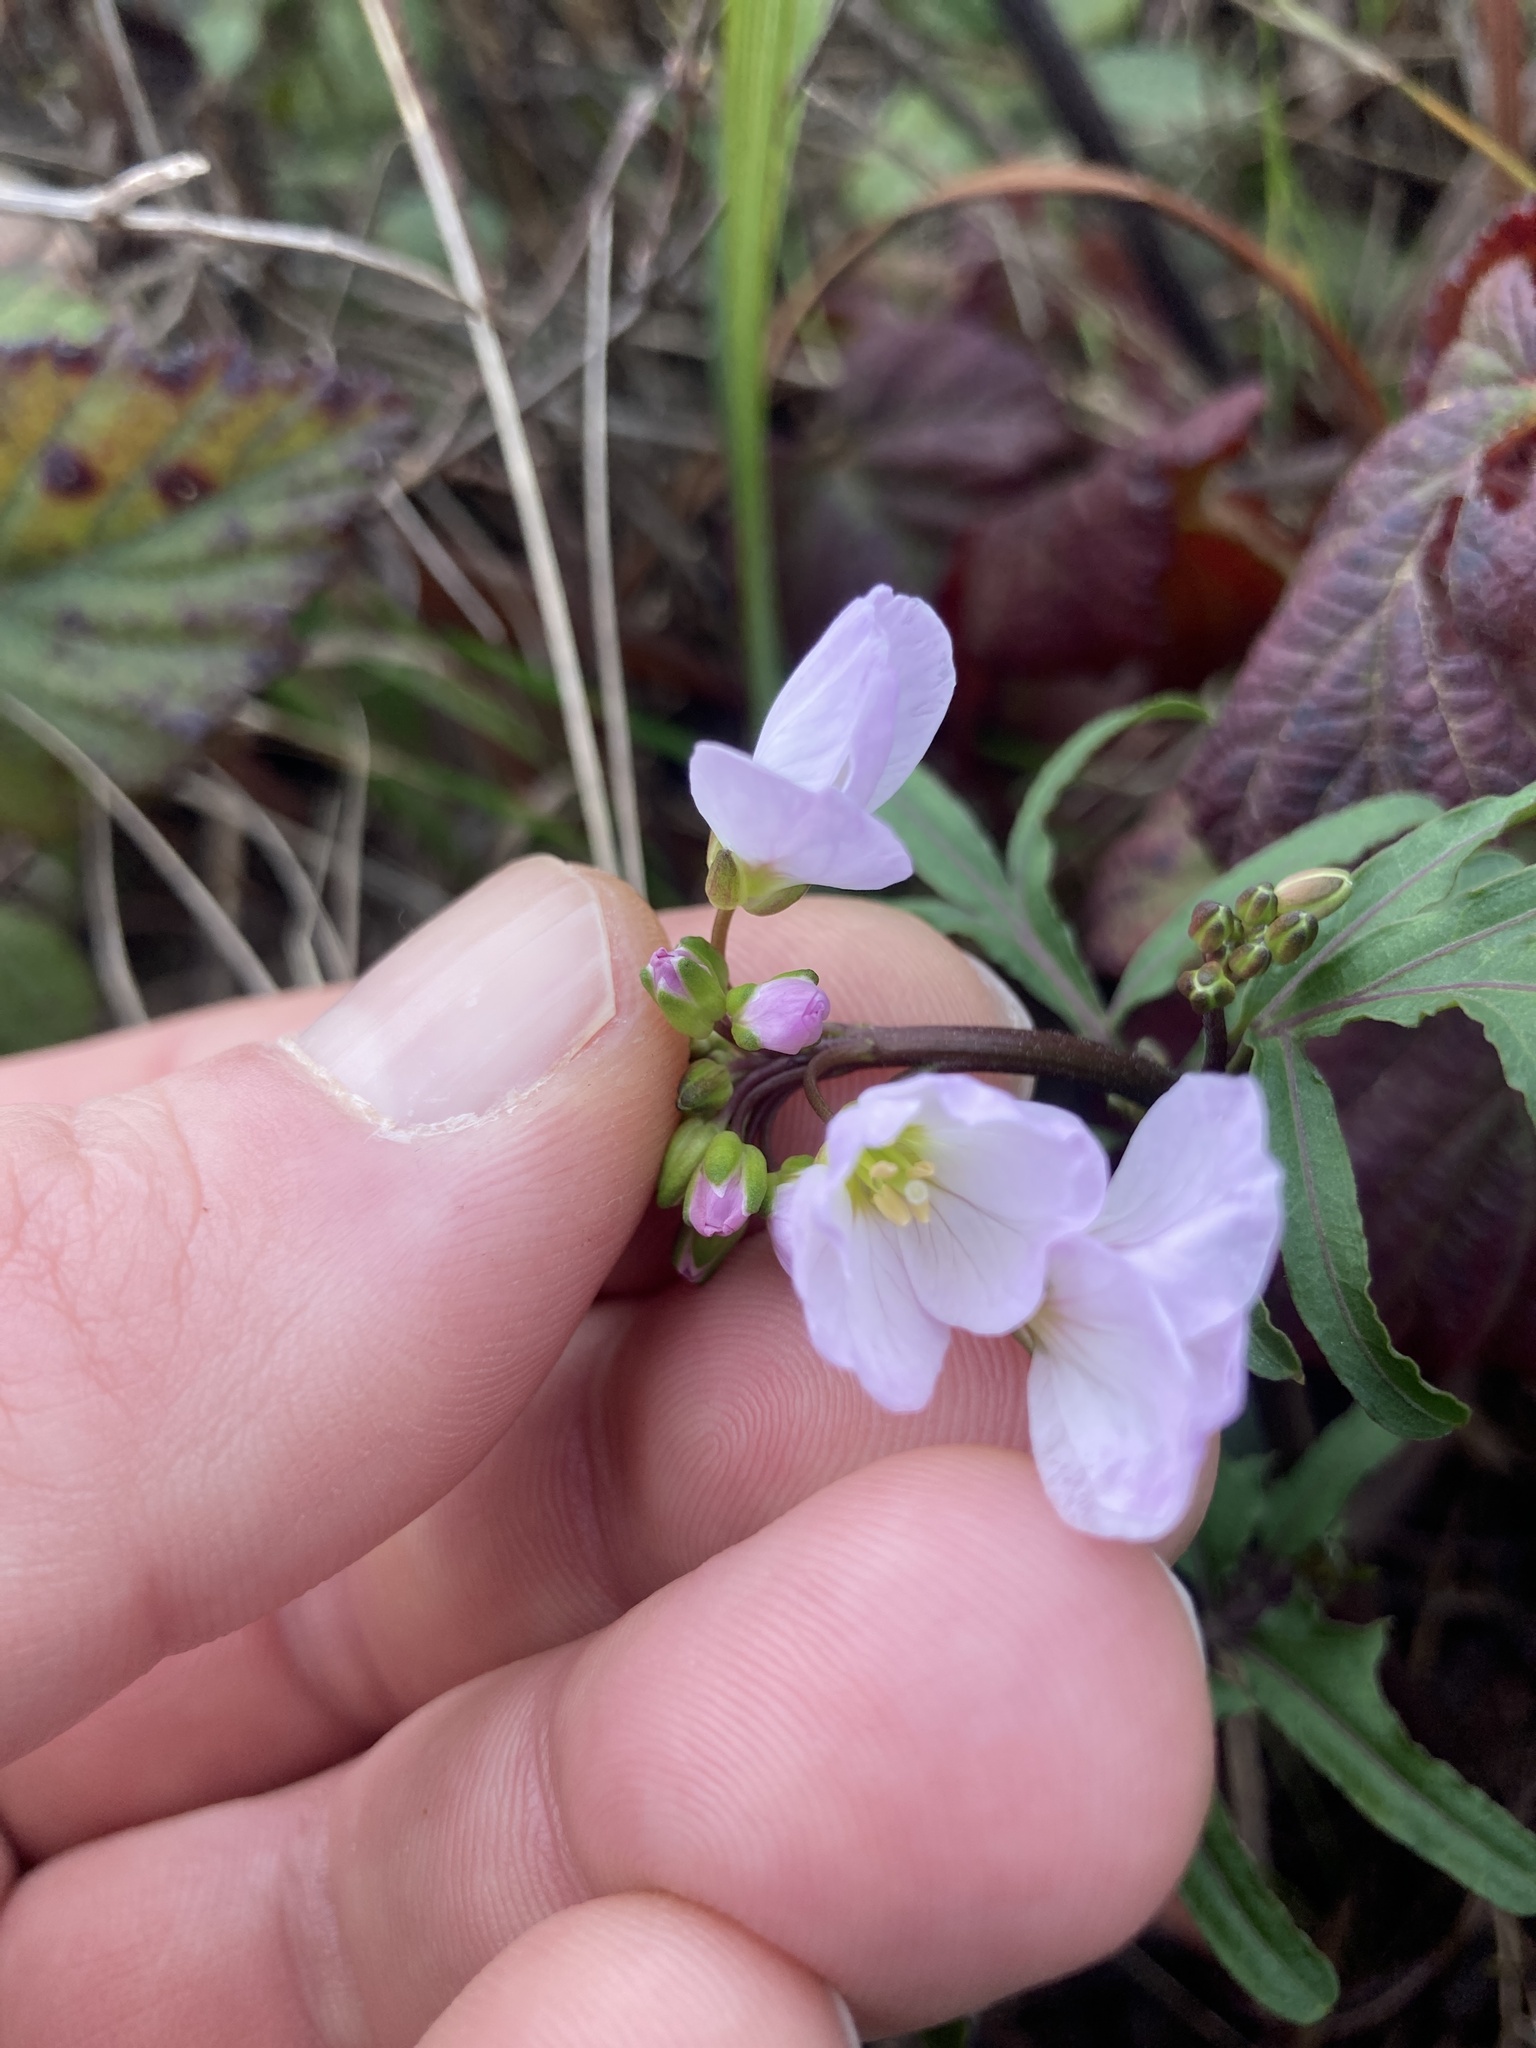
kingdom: Plantae
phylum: Tracheophyta
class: Magnoliopsida
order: Brassicales
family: Brassicaceae
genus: Cardamine
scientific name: Cardamine californica
